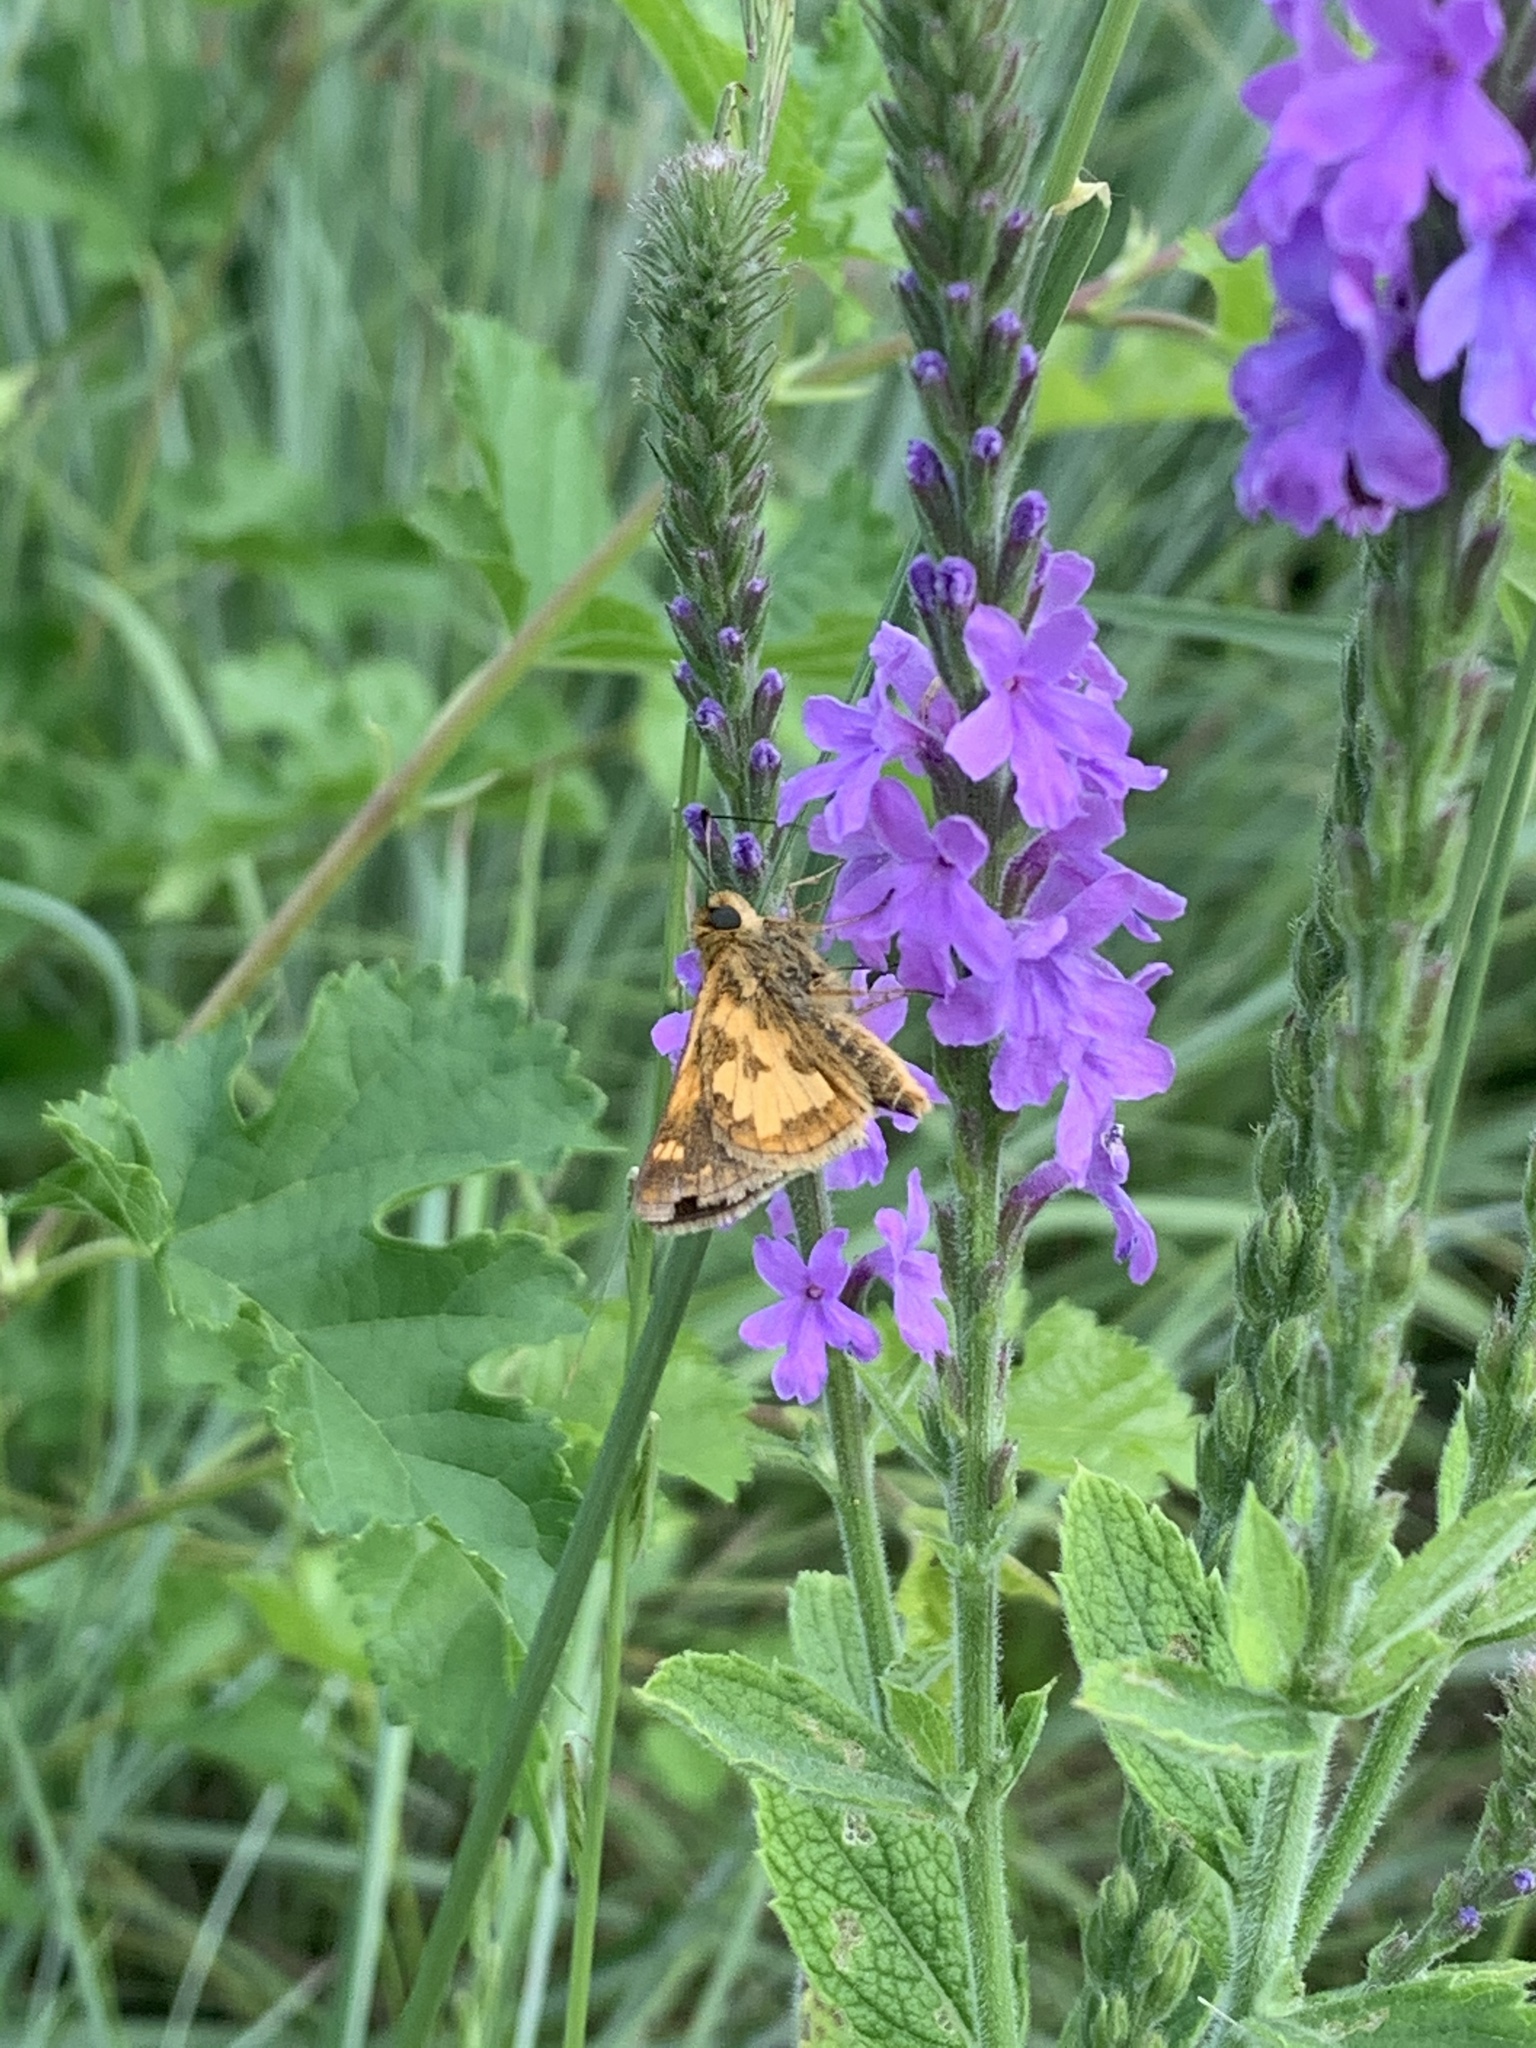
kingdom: Animalia
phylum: Arthropoda
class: Insecta
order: Lepidoptera
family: Hesperiidae
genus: Polites
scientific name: Polites coras
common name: Peck's skipper
